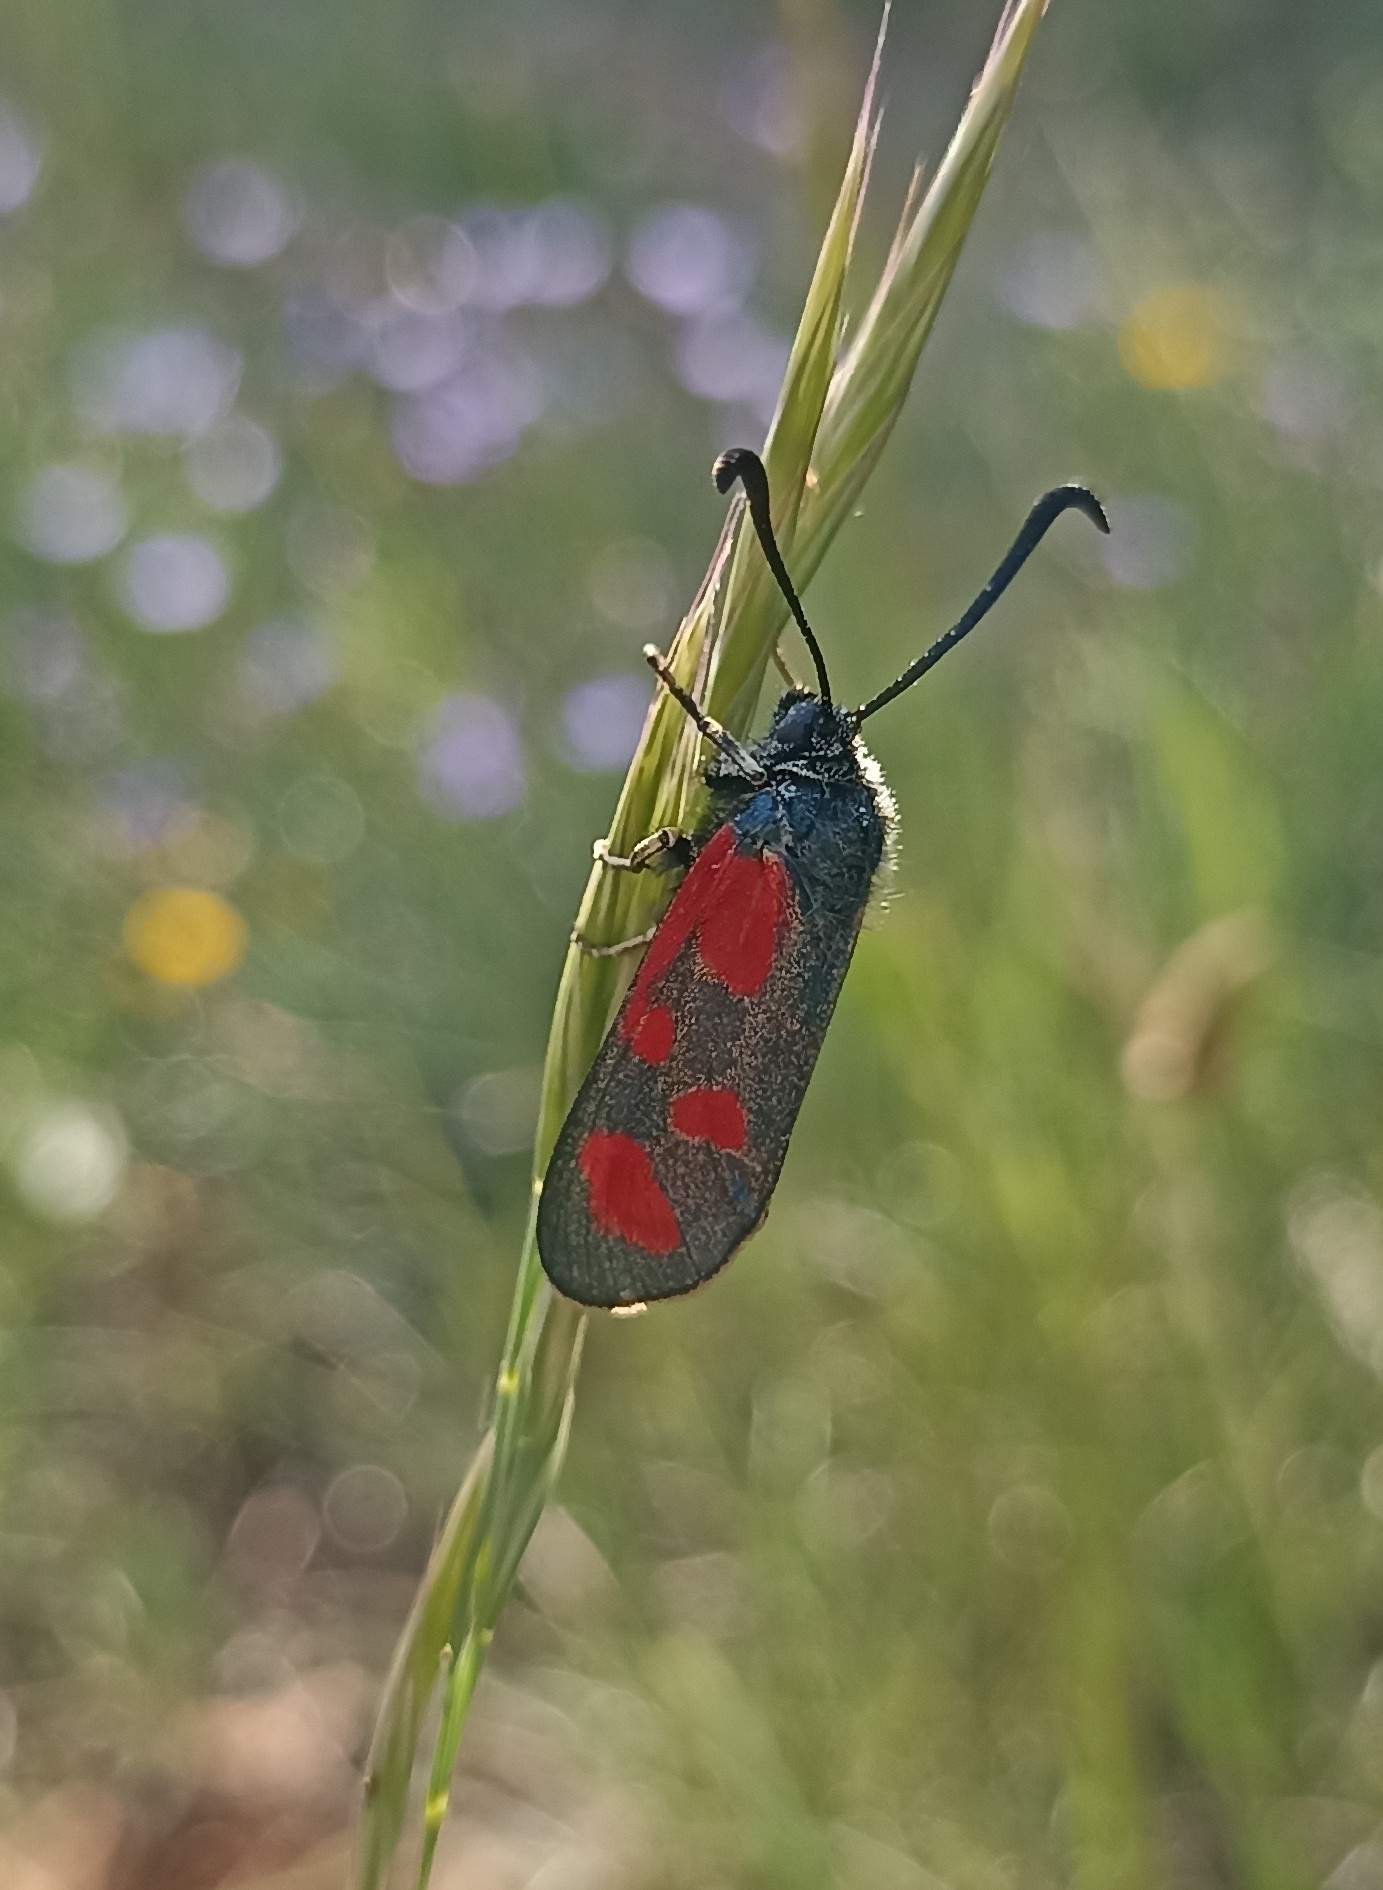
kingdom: Animalia
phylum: Arthropoda
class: Insecta
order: Lepidoptera
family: Zygaenidae
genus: Zygaena
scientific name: Zygaena loti
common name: Slender scotch burnet
